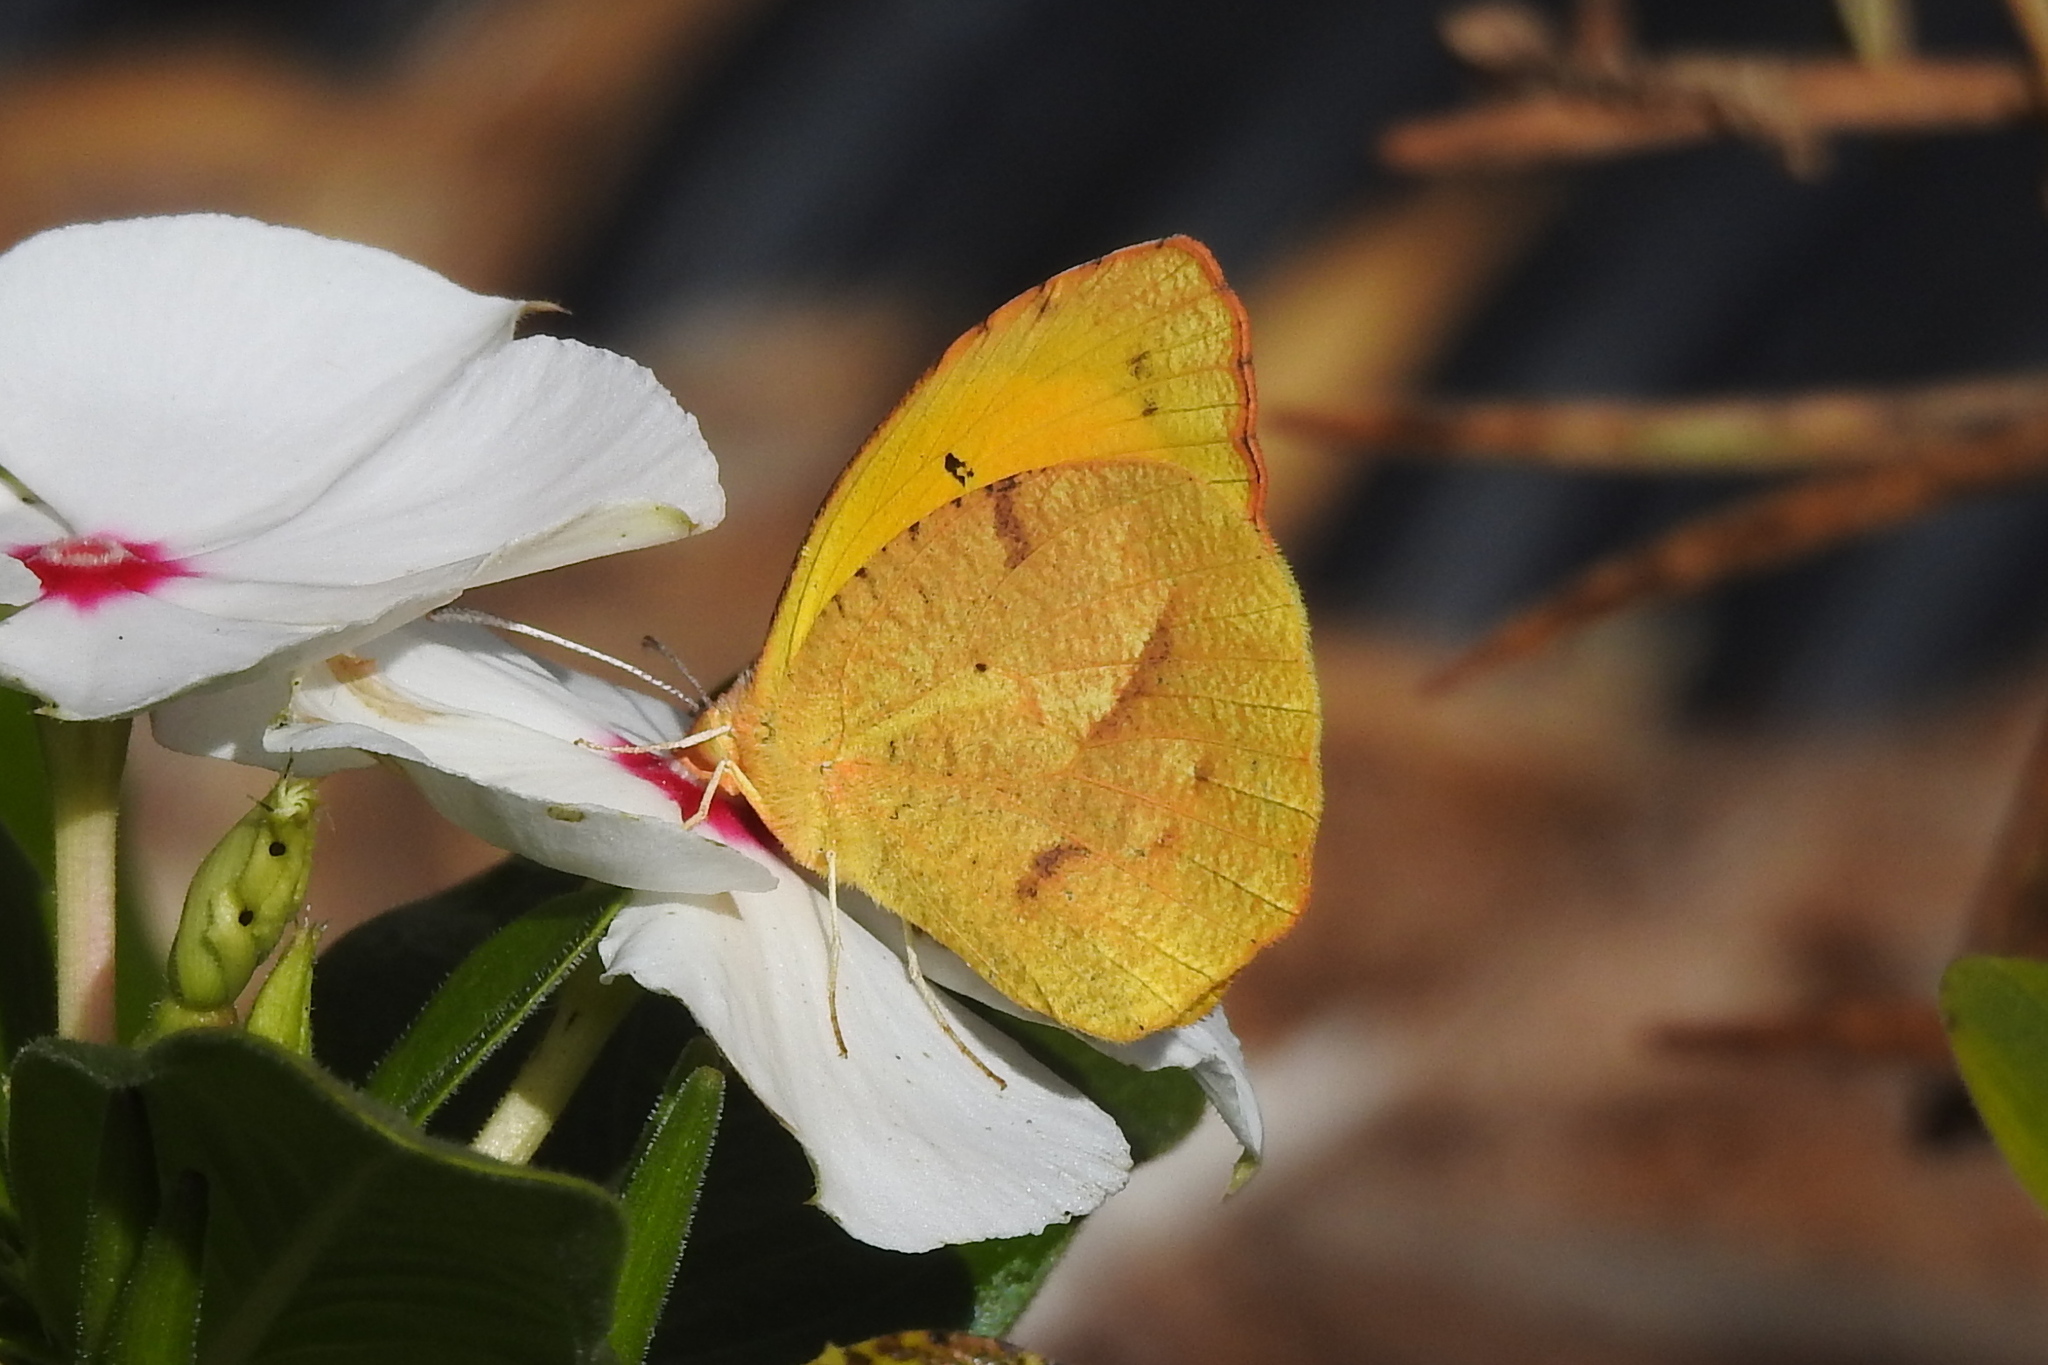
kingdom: Animalia
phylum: Arthropoda
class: Insecta
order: Lepidoptera
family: Pieridae
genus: Abaeis
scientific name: Abaeis nicippe
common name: Sleepy orange
